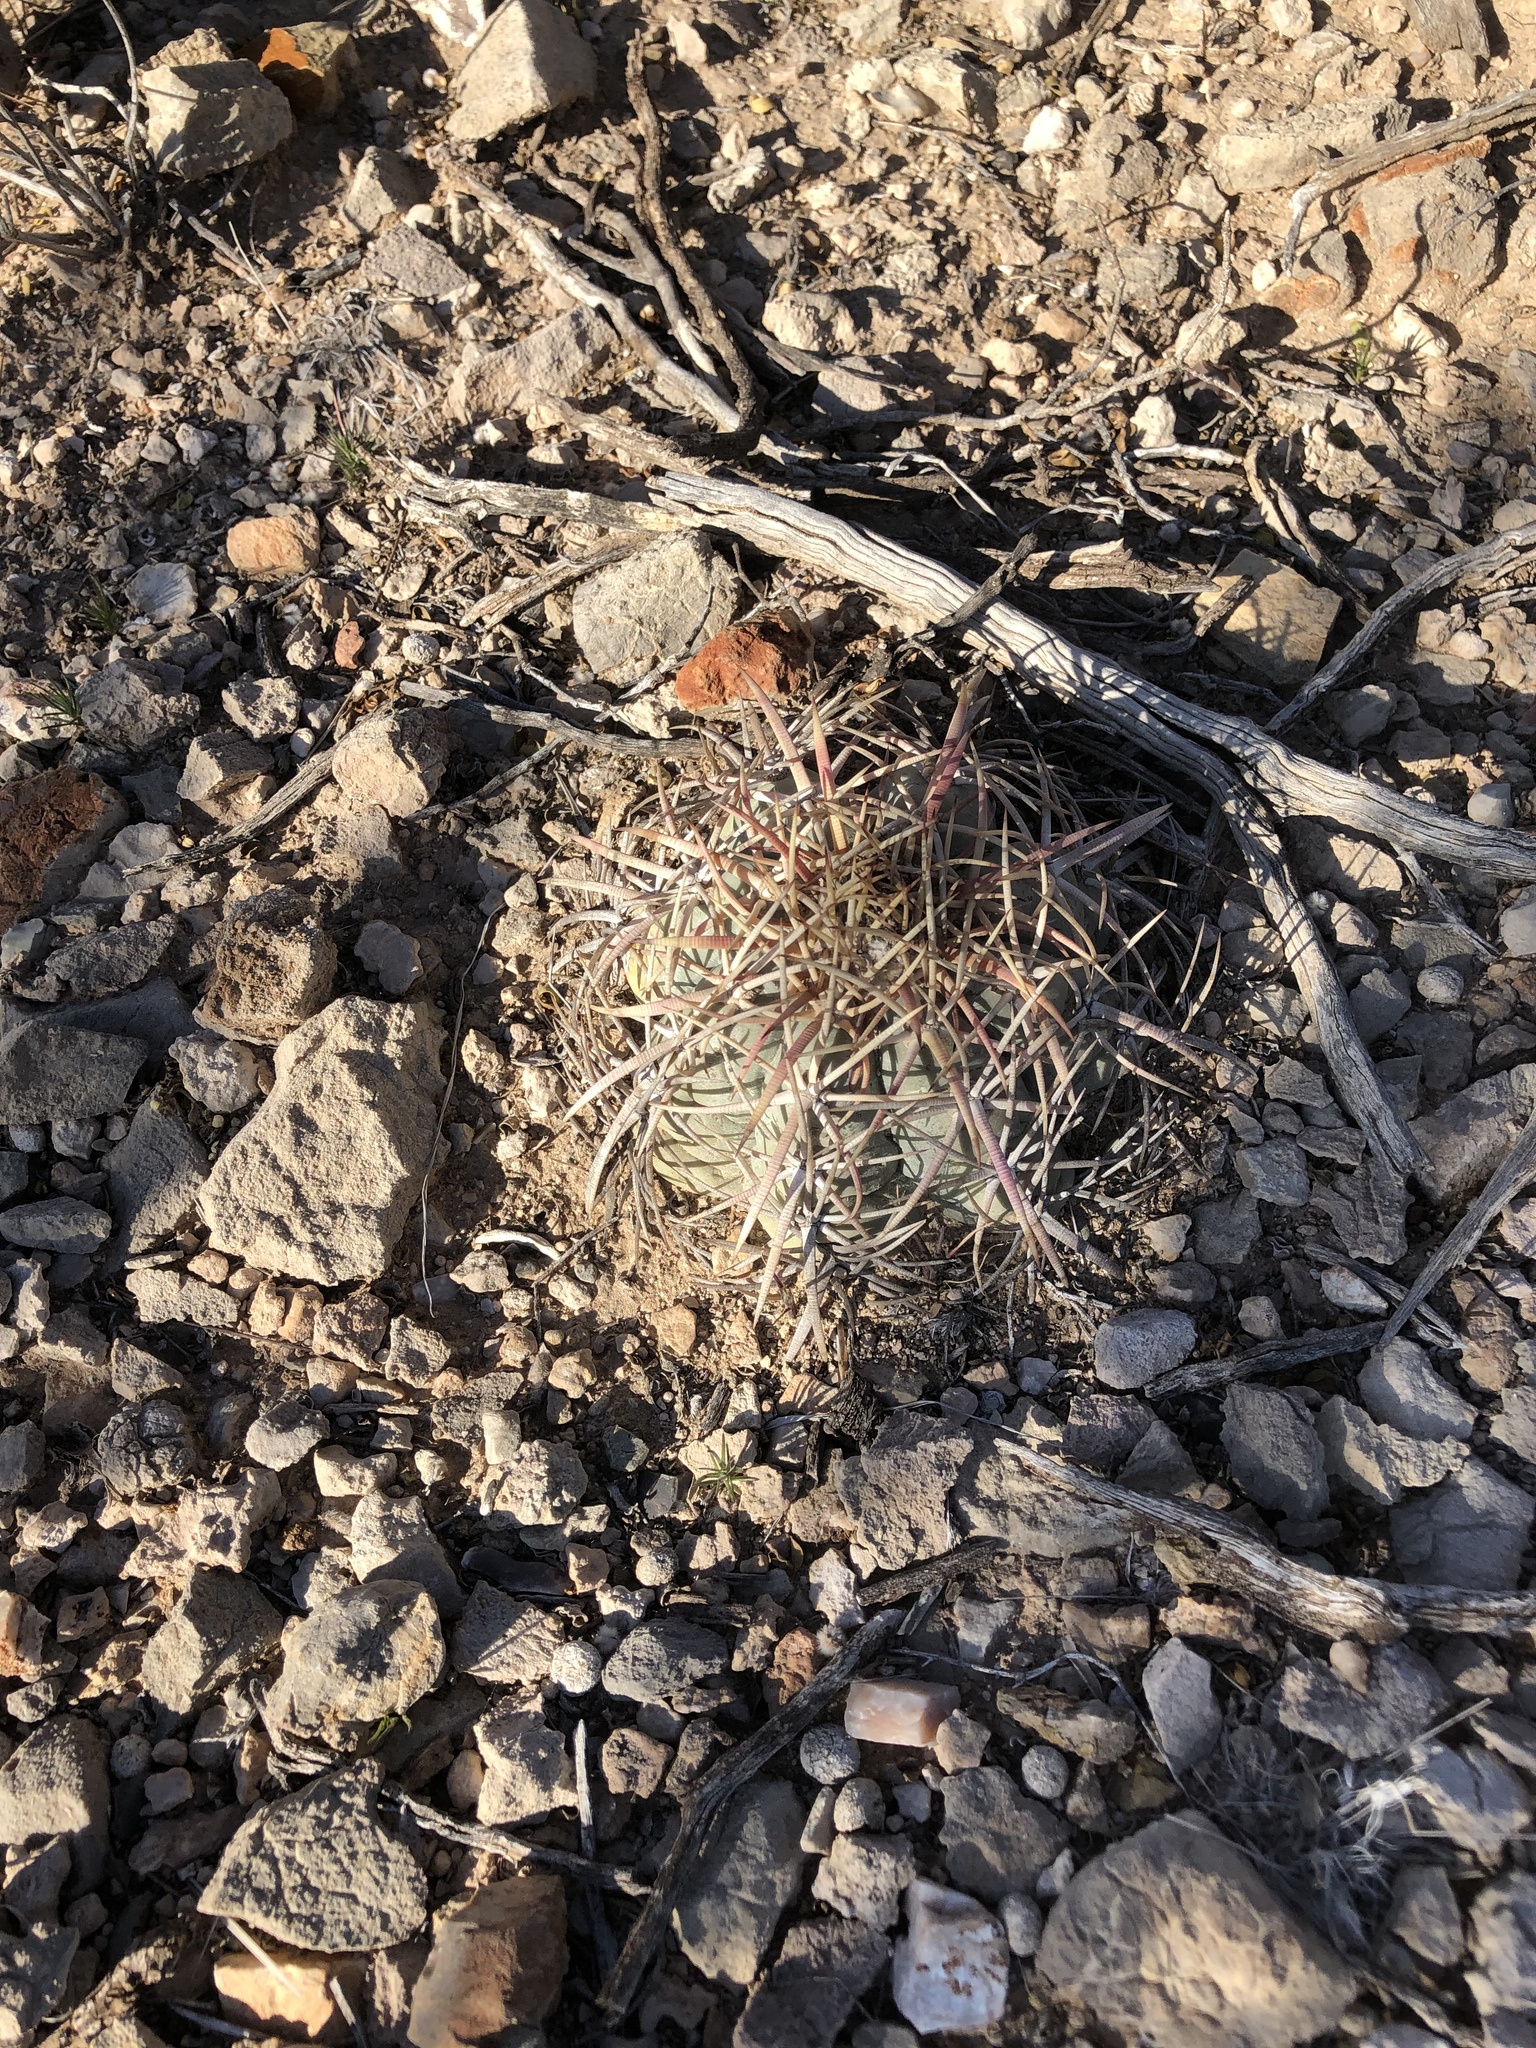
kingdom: Plantae
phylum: Tracheophyta
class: Magnoliopsida
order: Caryophyllales
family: Cactaceae
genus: Echinocactus
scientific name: Echinocactus horizonthalonius
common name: Devilshead
